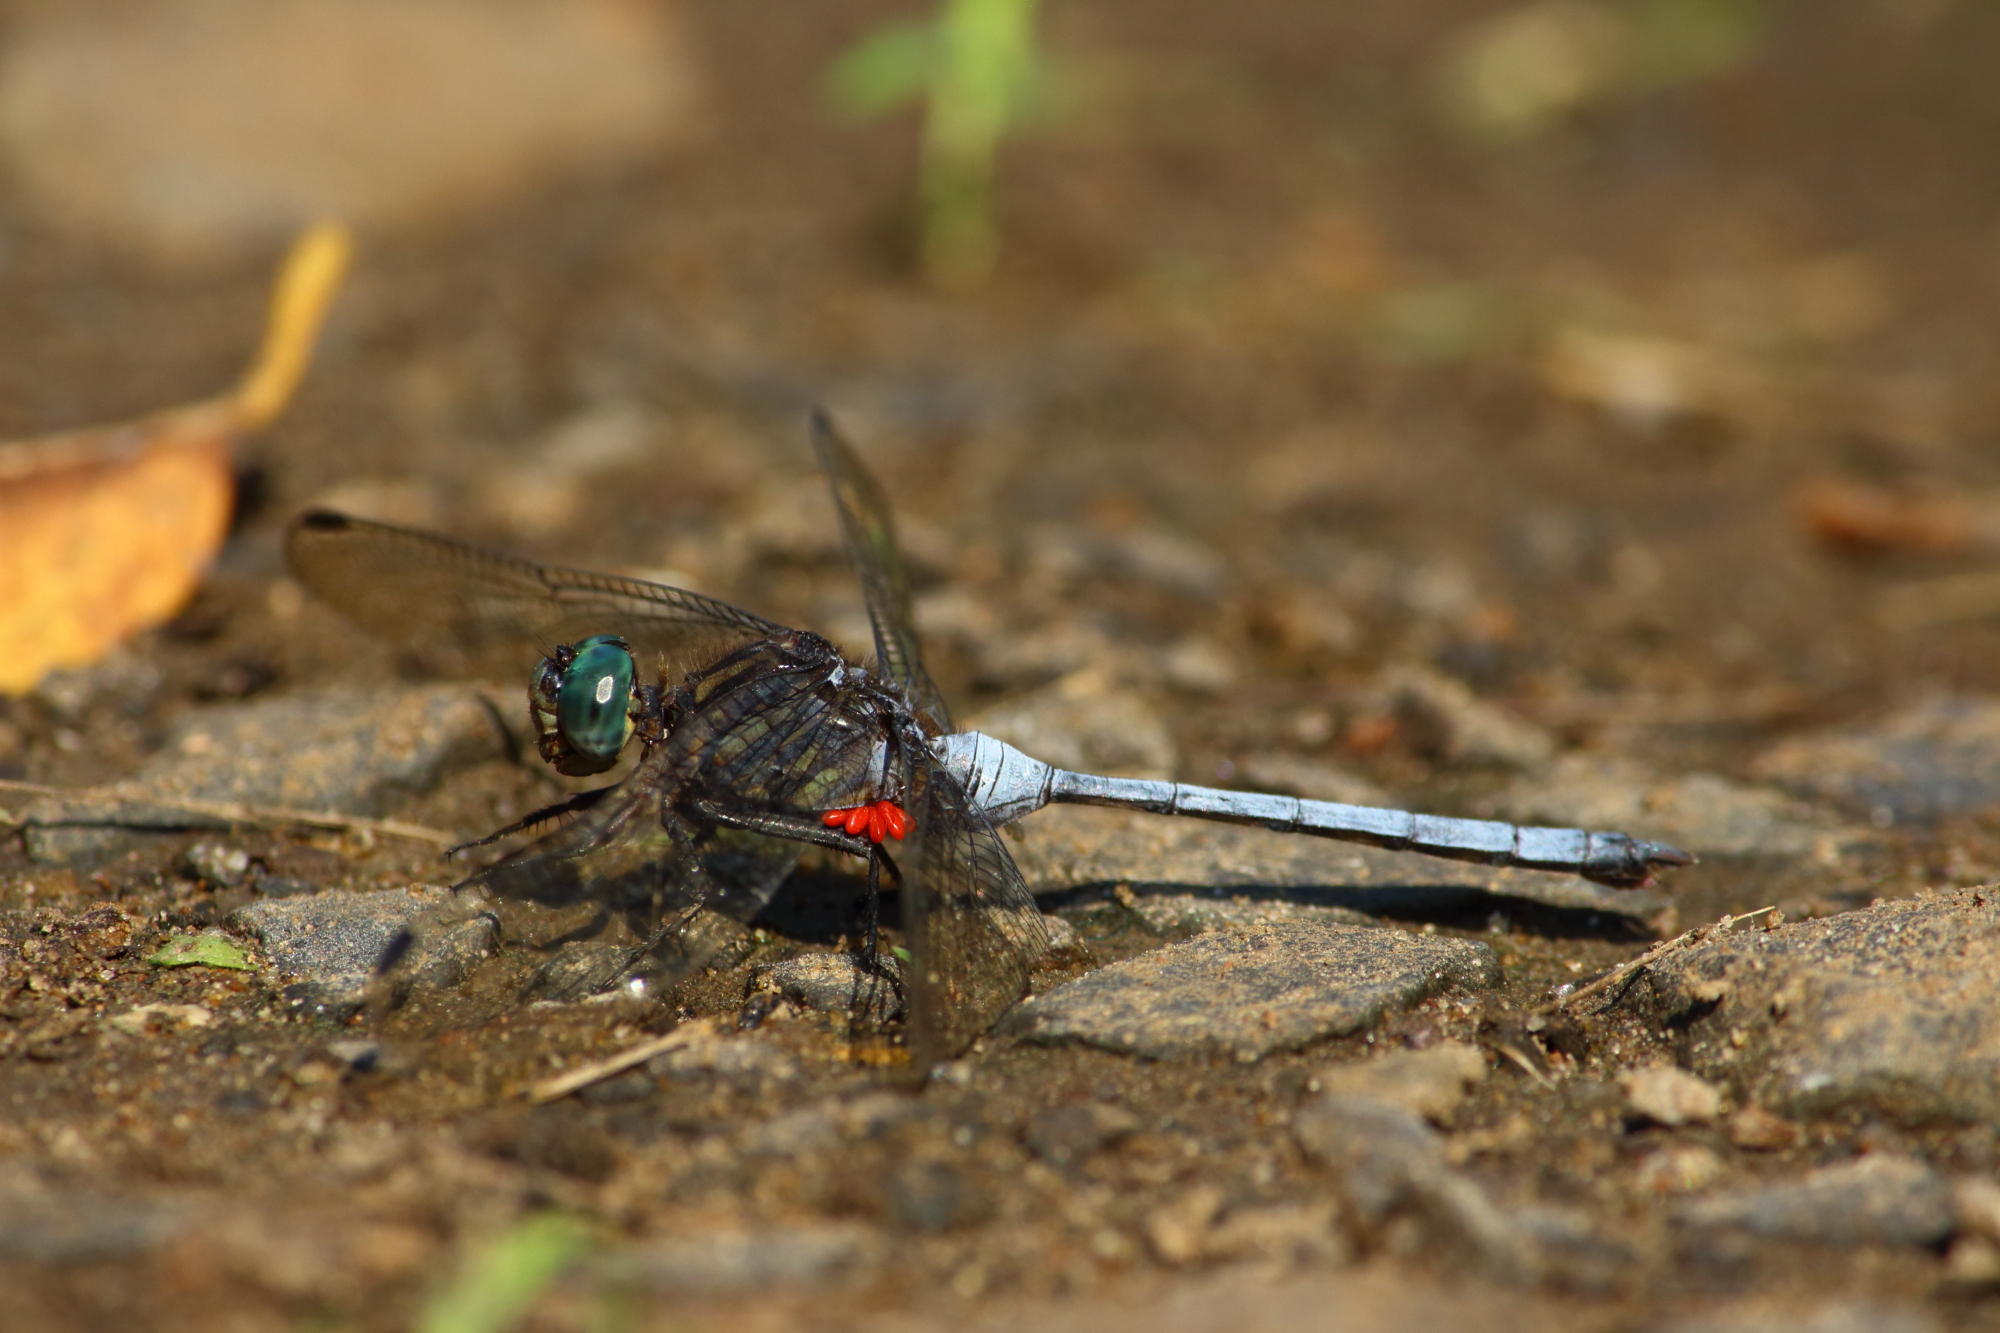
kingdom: Animalia
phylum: Arthropoda
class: Insecta
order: Odonata
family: Libellulidae
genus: Orthetrum
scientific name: Orthetrum julia
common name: Julia skimmer
